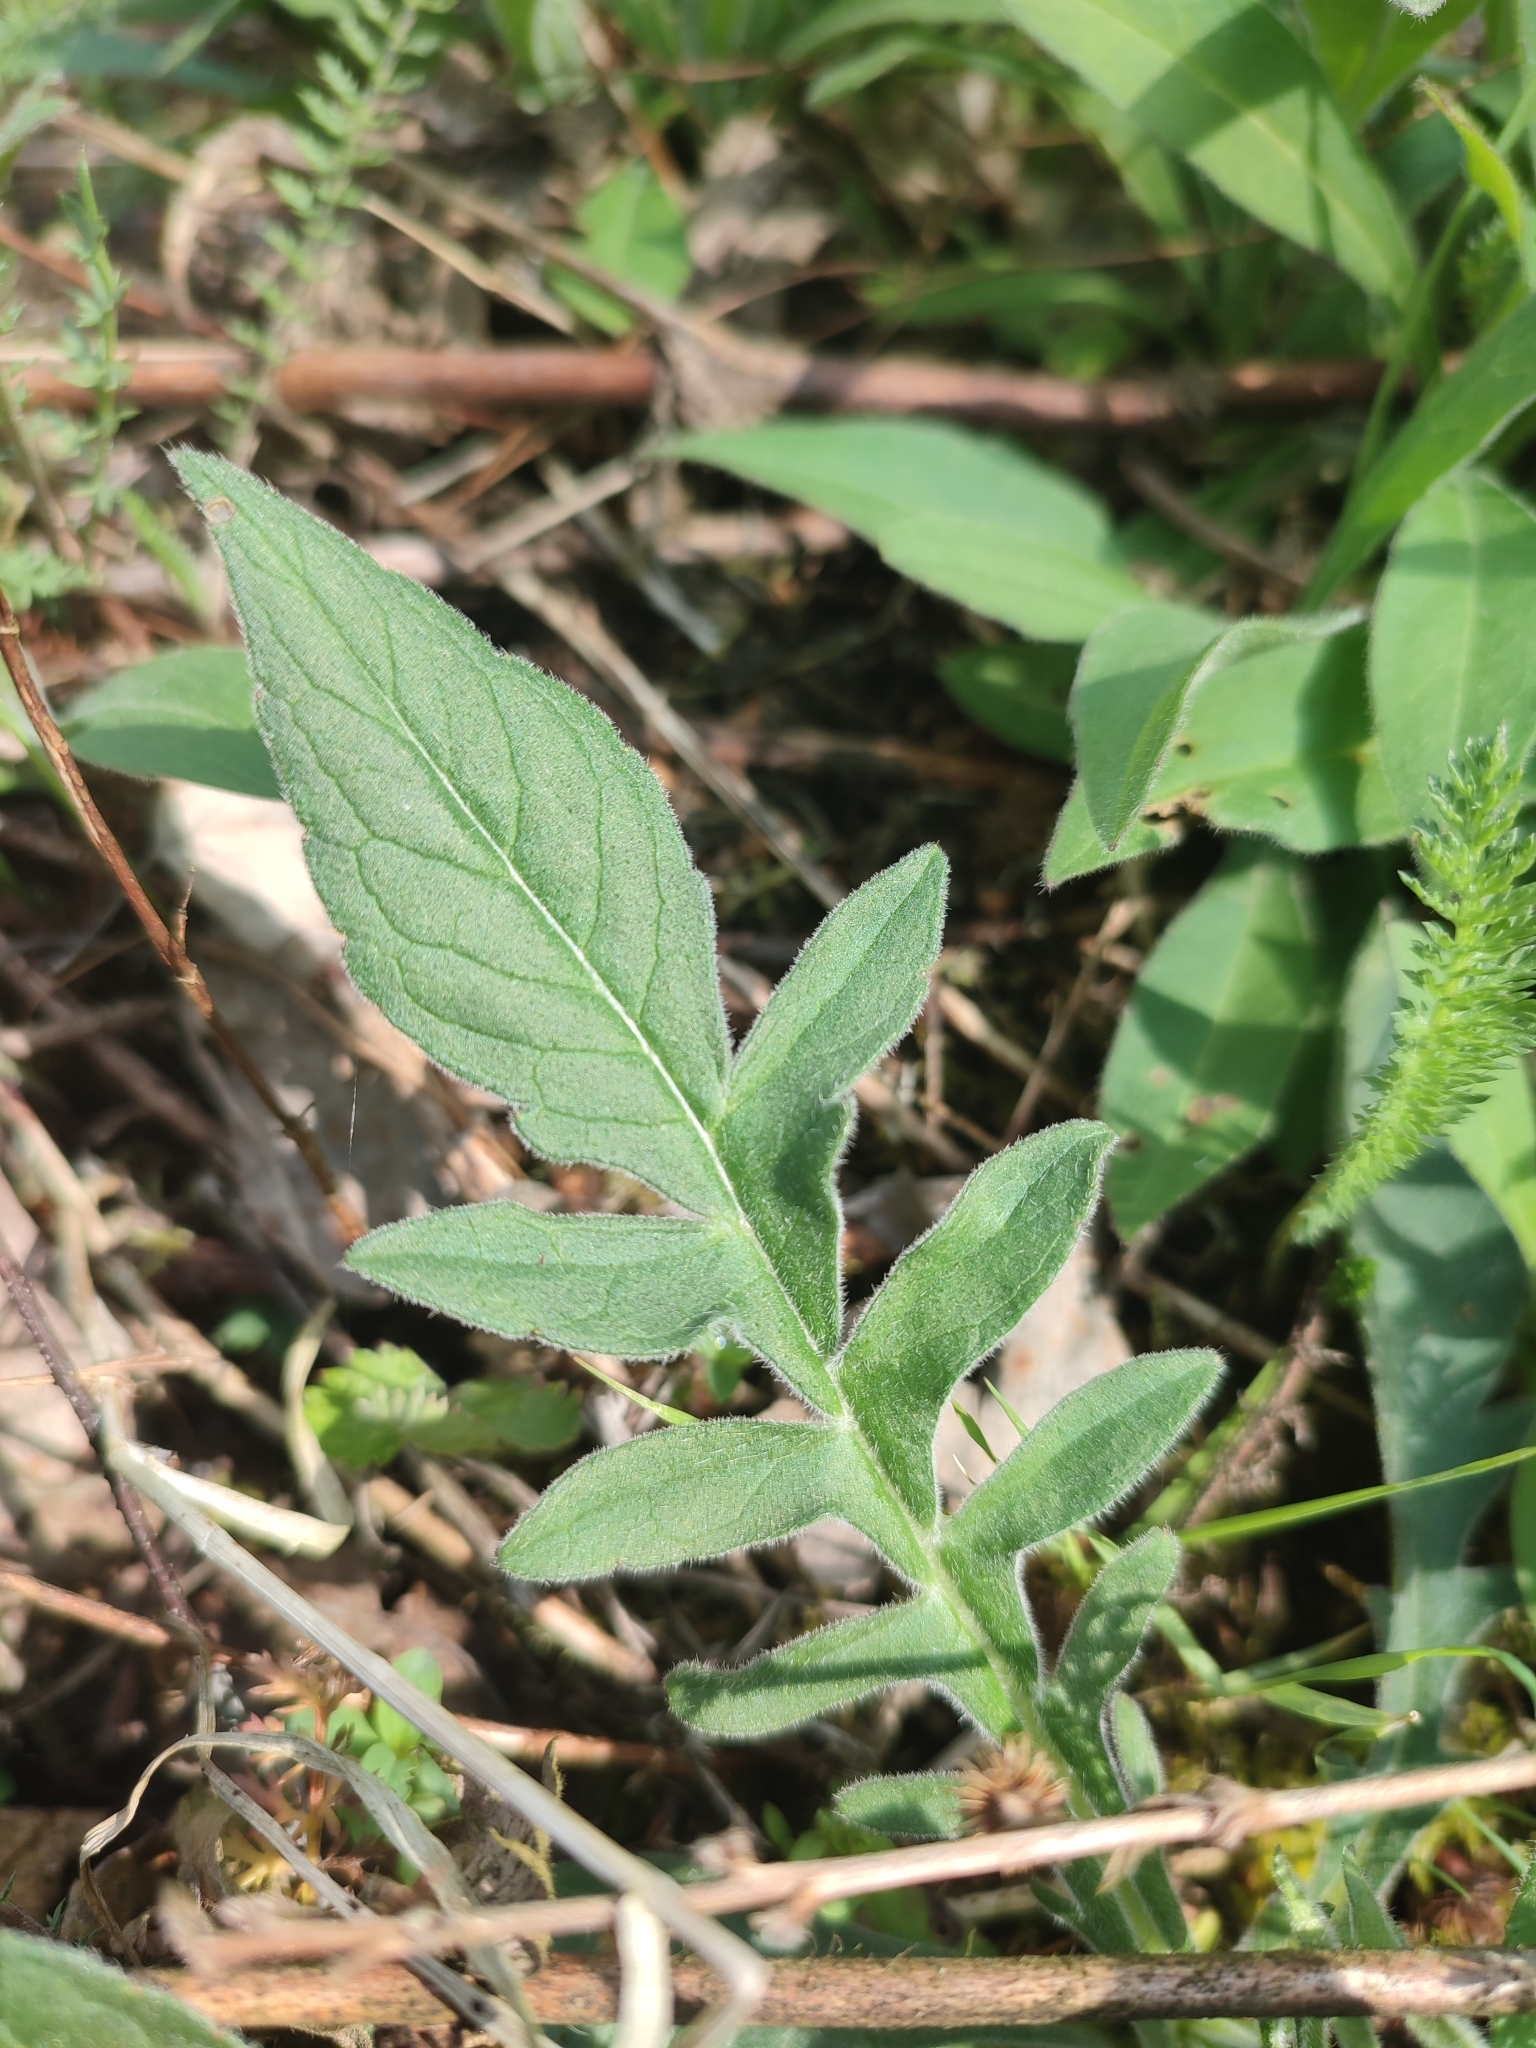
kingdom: Plantae
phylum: Tracheophyta
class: Magnoliopsida
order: Dipsacales
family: Caprifoliaceae
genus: Knautia
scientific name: Knautia arvensis
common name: Field scabiosa
